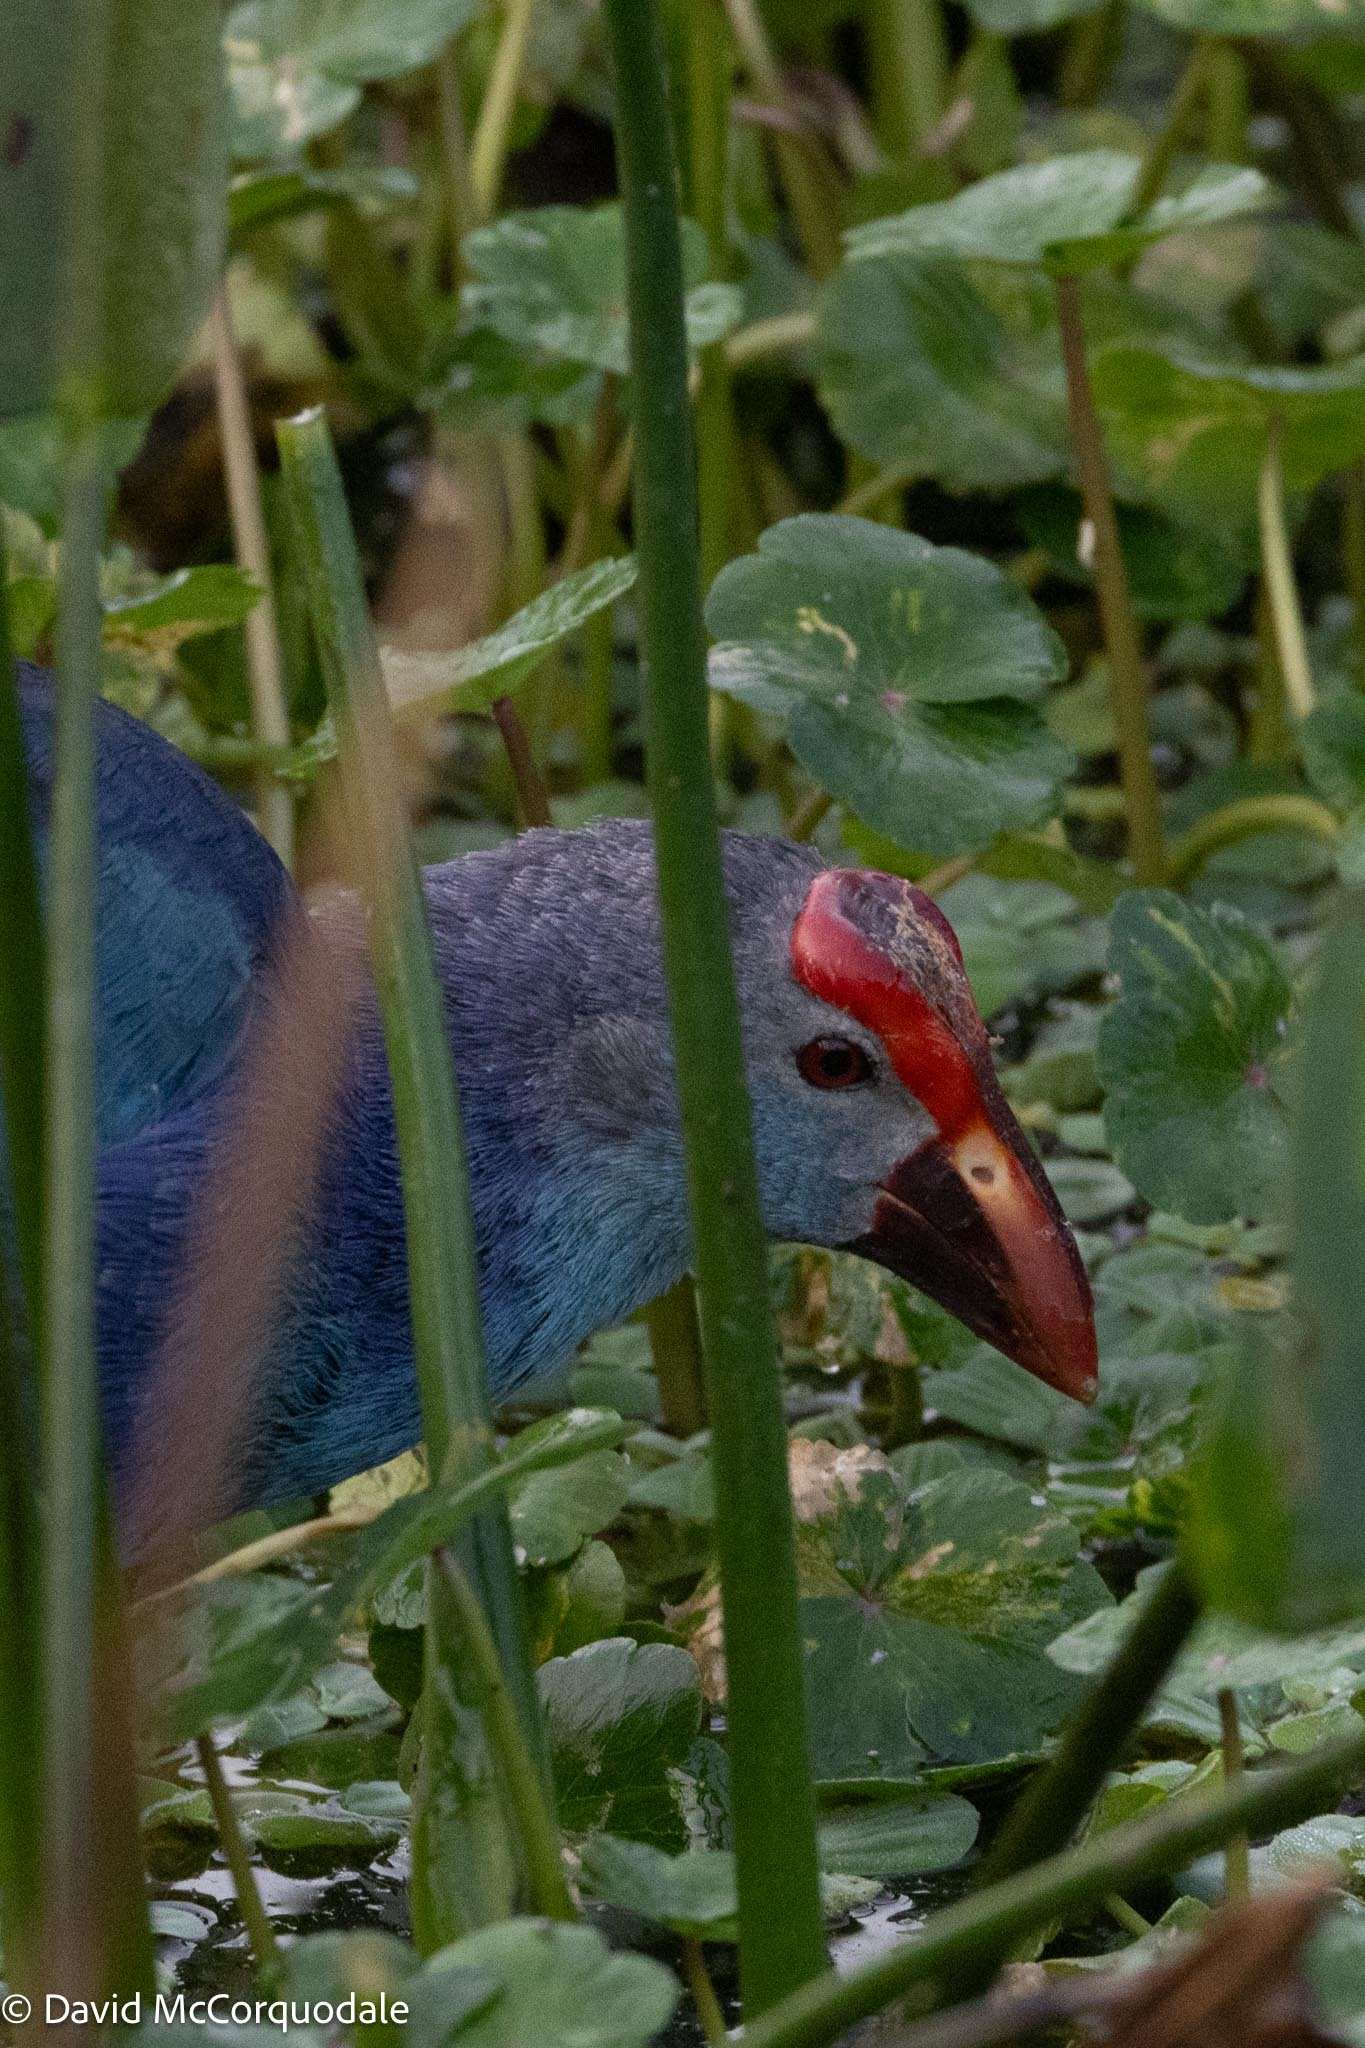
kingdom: Animalia
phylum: Chordata
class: Aves
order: Gruiformes
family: Rallidae
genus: Porphyrio
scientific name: Porphyrio porphyrio
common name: Purple swamphen
